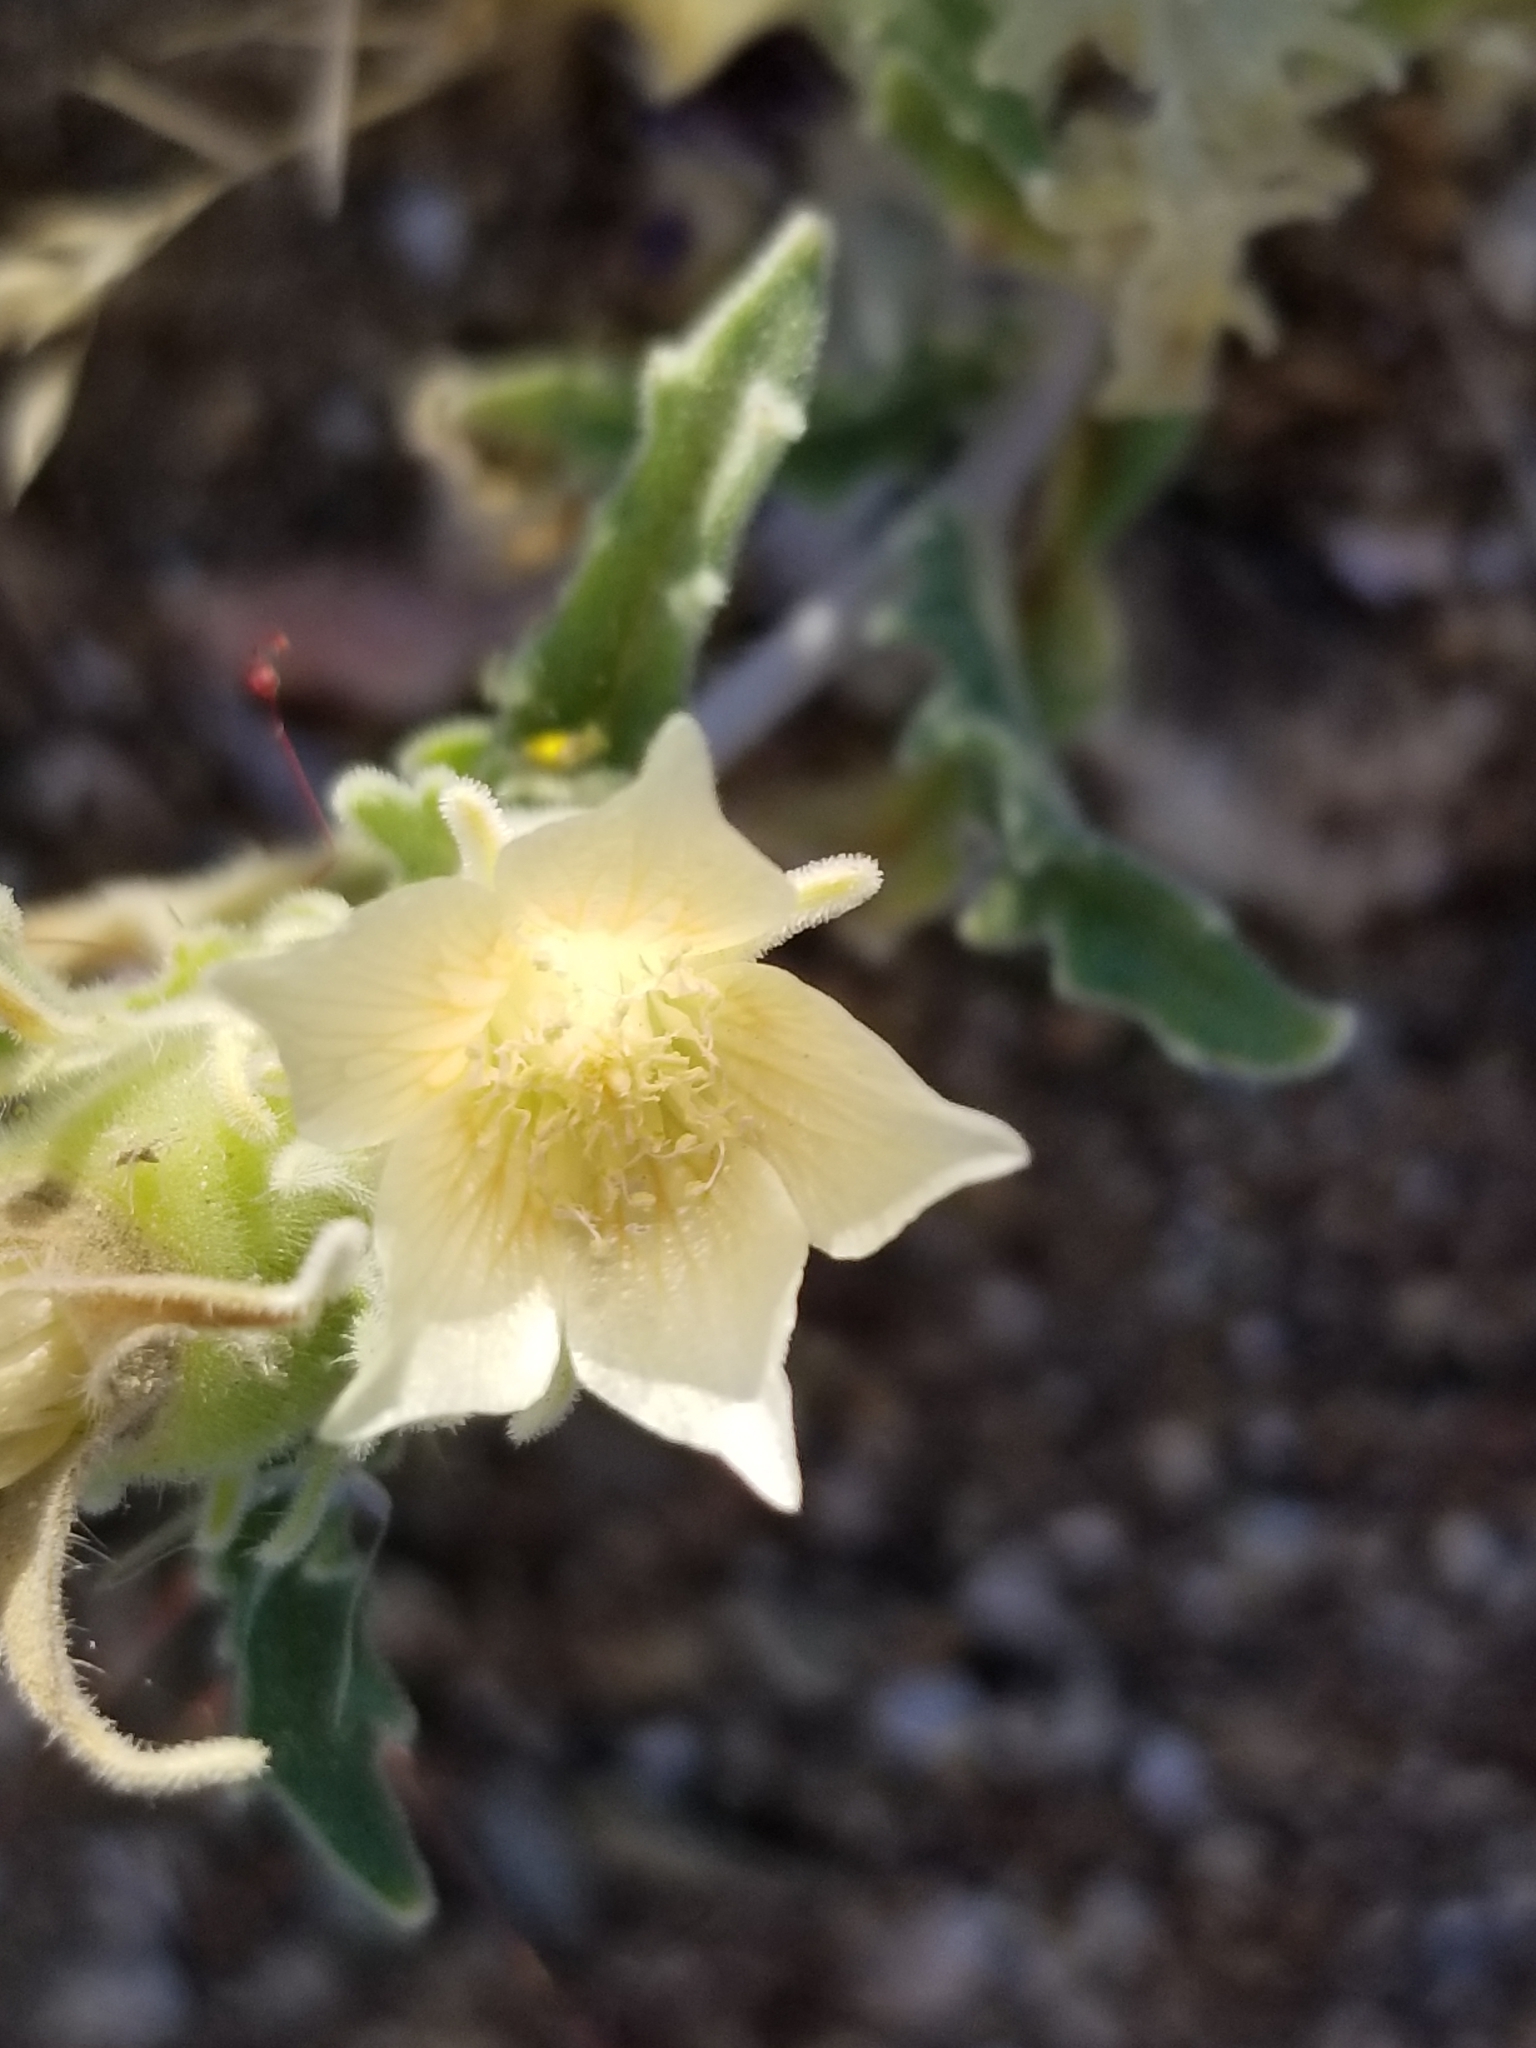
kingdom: Plantae
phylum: Tracheophyta
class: Magnoliopsida
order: Cornales
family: Loasaceae
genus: Mentzelia
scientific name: Mentzelia involucrata
